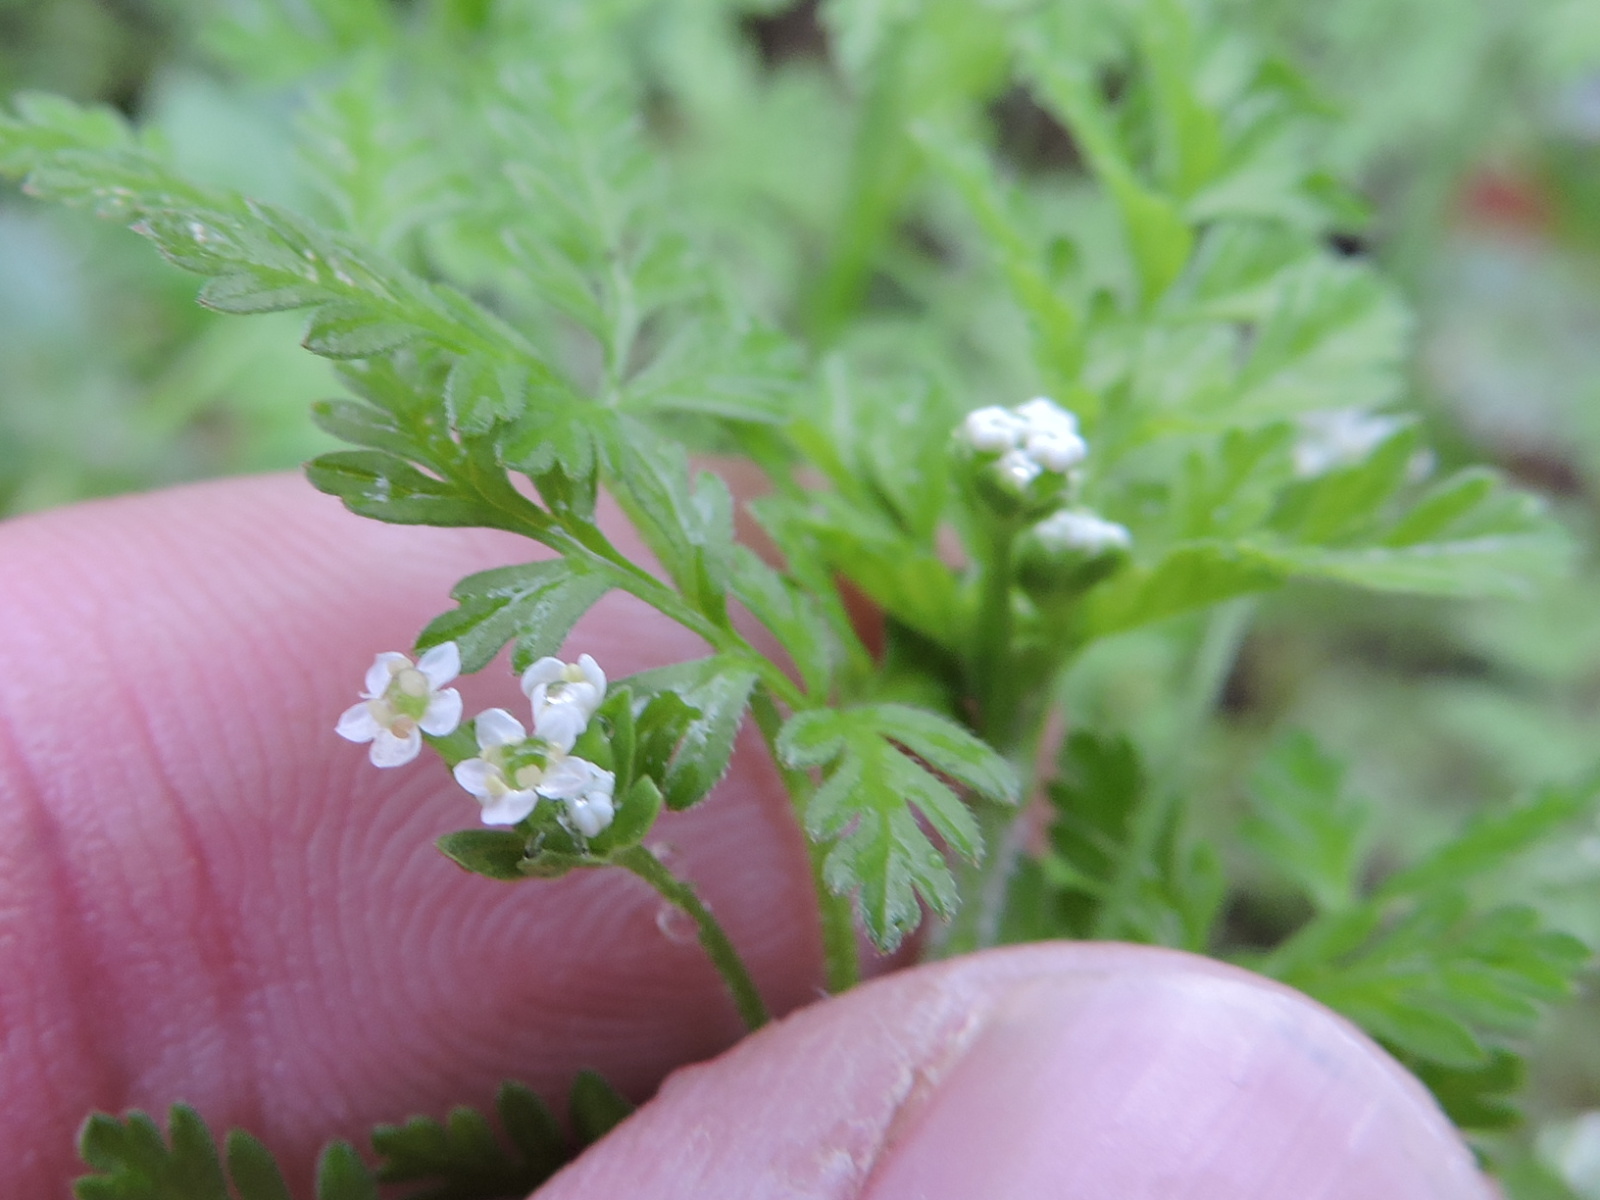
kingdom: Plantae
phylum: Tracheophyta
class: Magnoliopsida
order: Apiales
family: Apiaceae
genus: Chaerophyllum
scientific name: Chaerophyllum tainturieri
